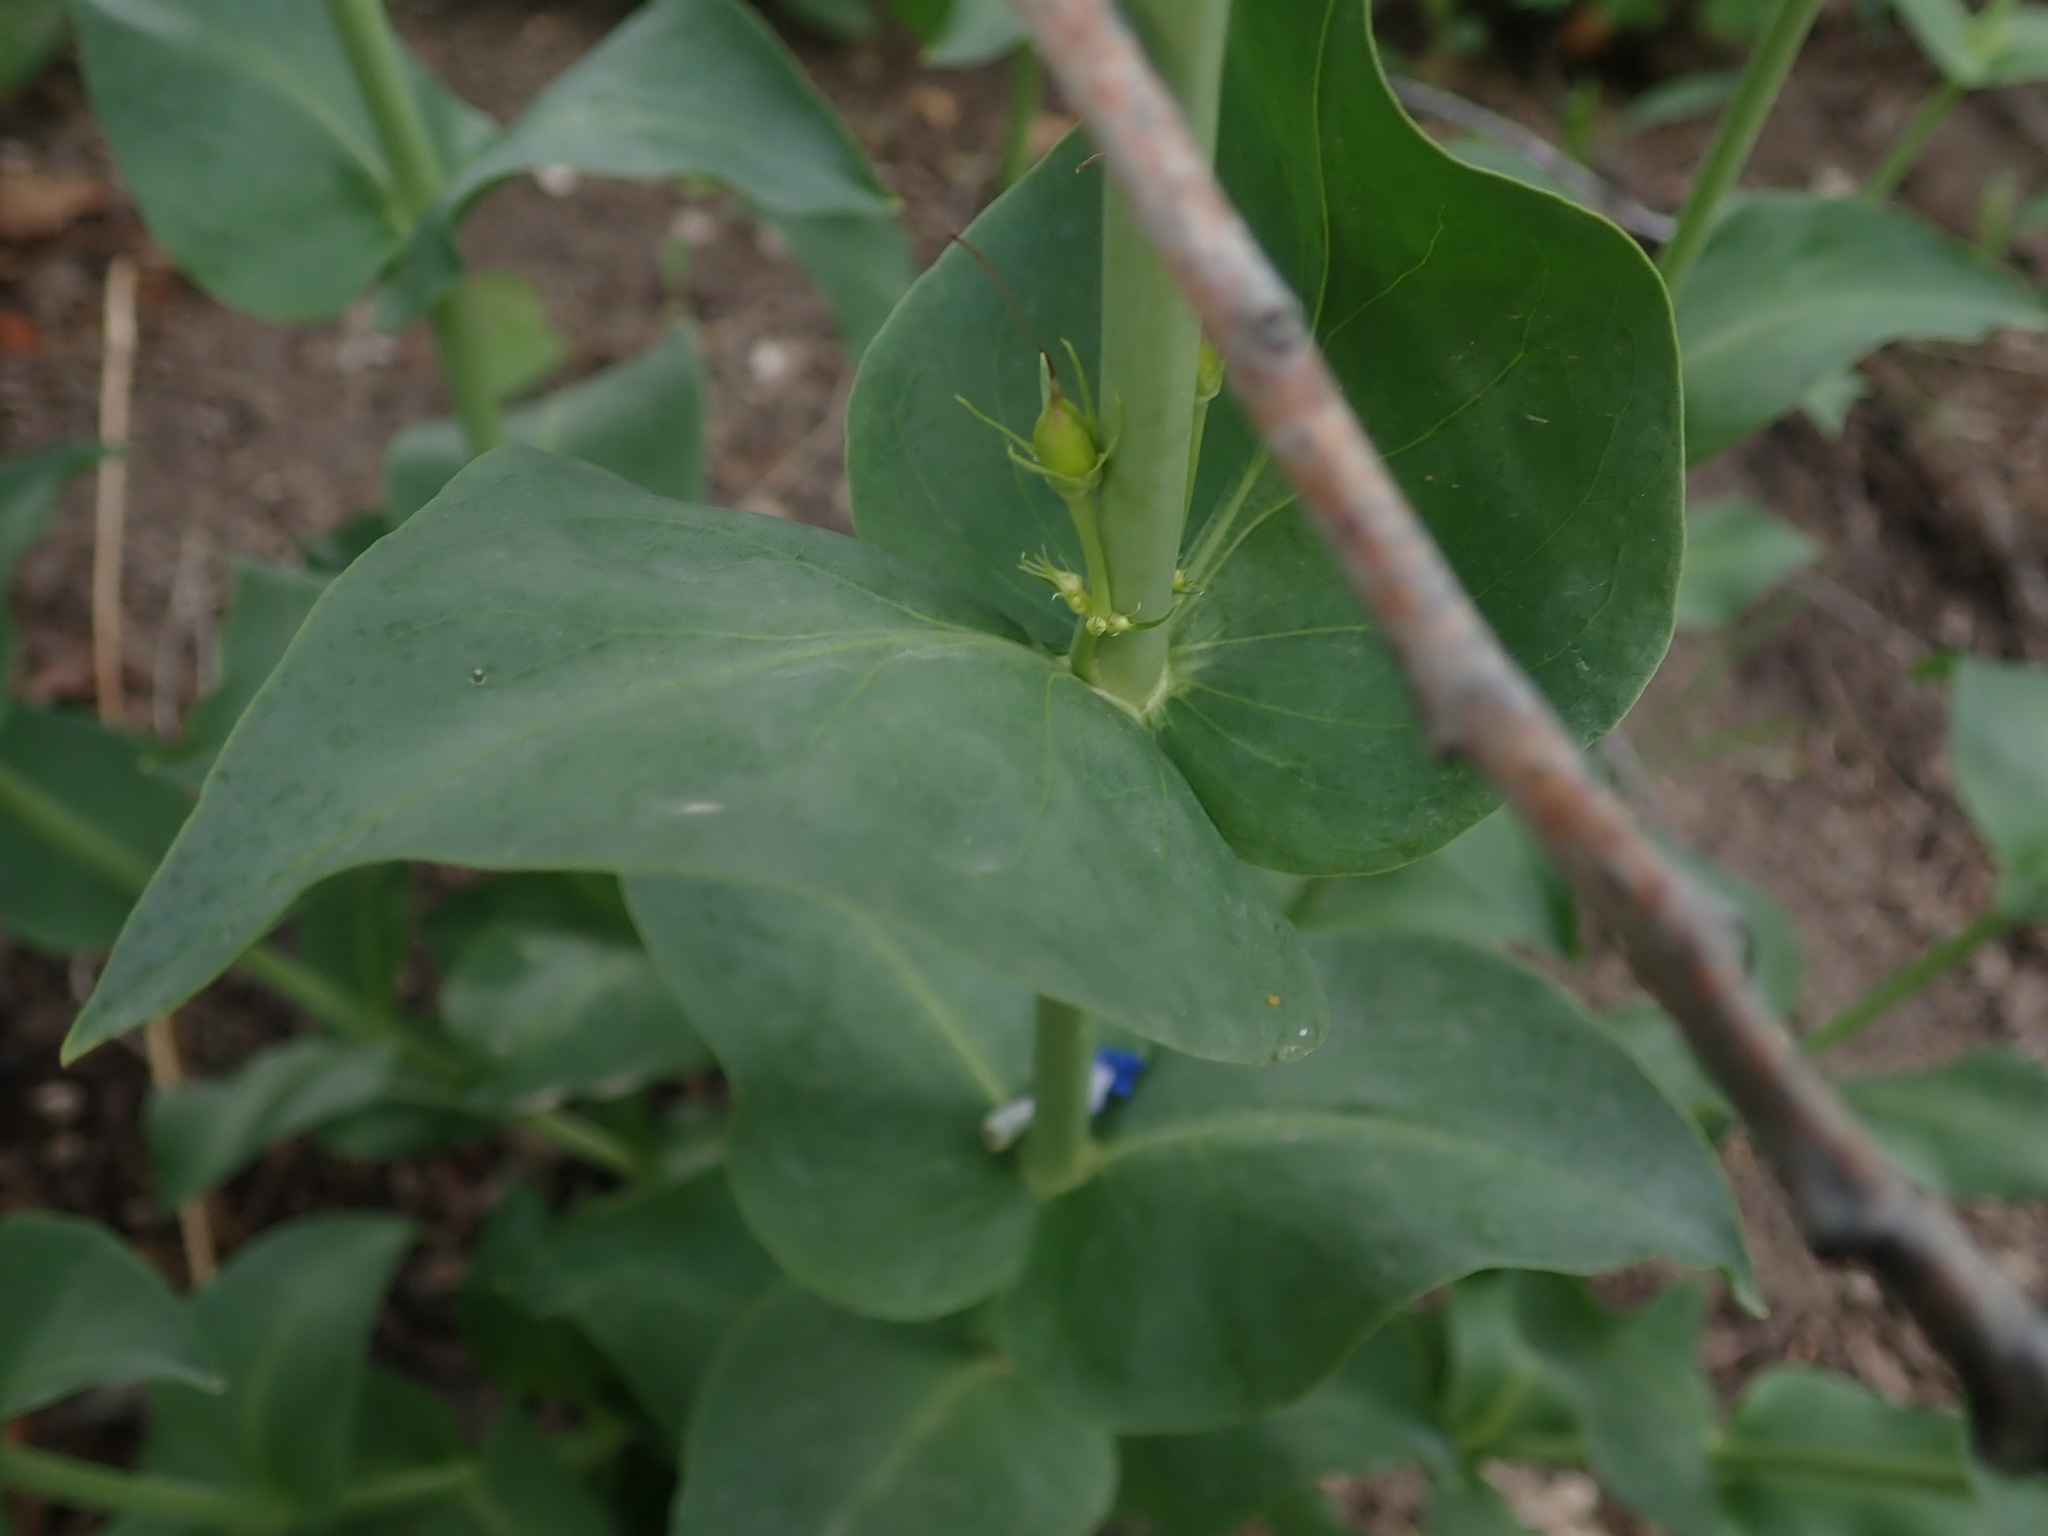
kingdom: Plantae
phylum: Tracheophyta
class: Magnoliopsida
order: Lamiales
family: Plantaginaceae
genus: Penstemon
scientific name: Penstemon cyananthus
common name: Wasatch penstemon
